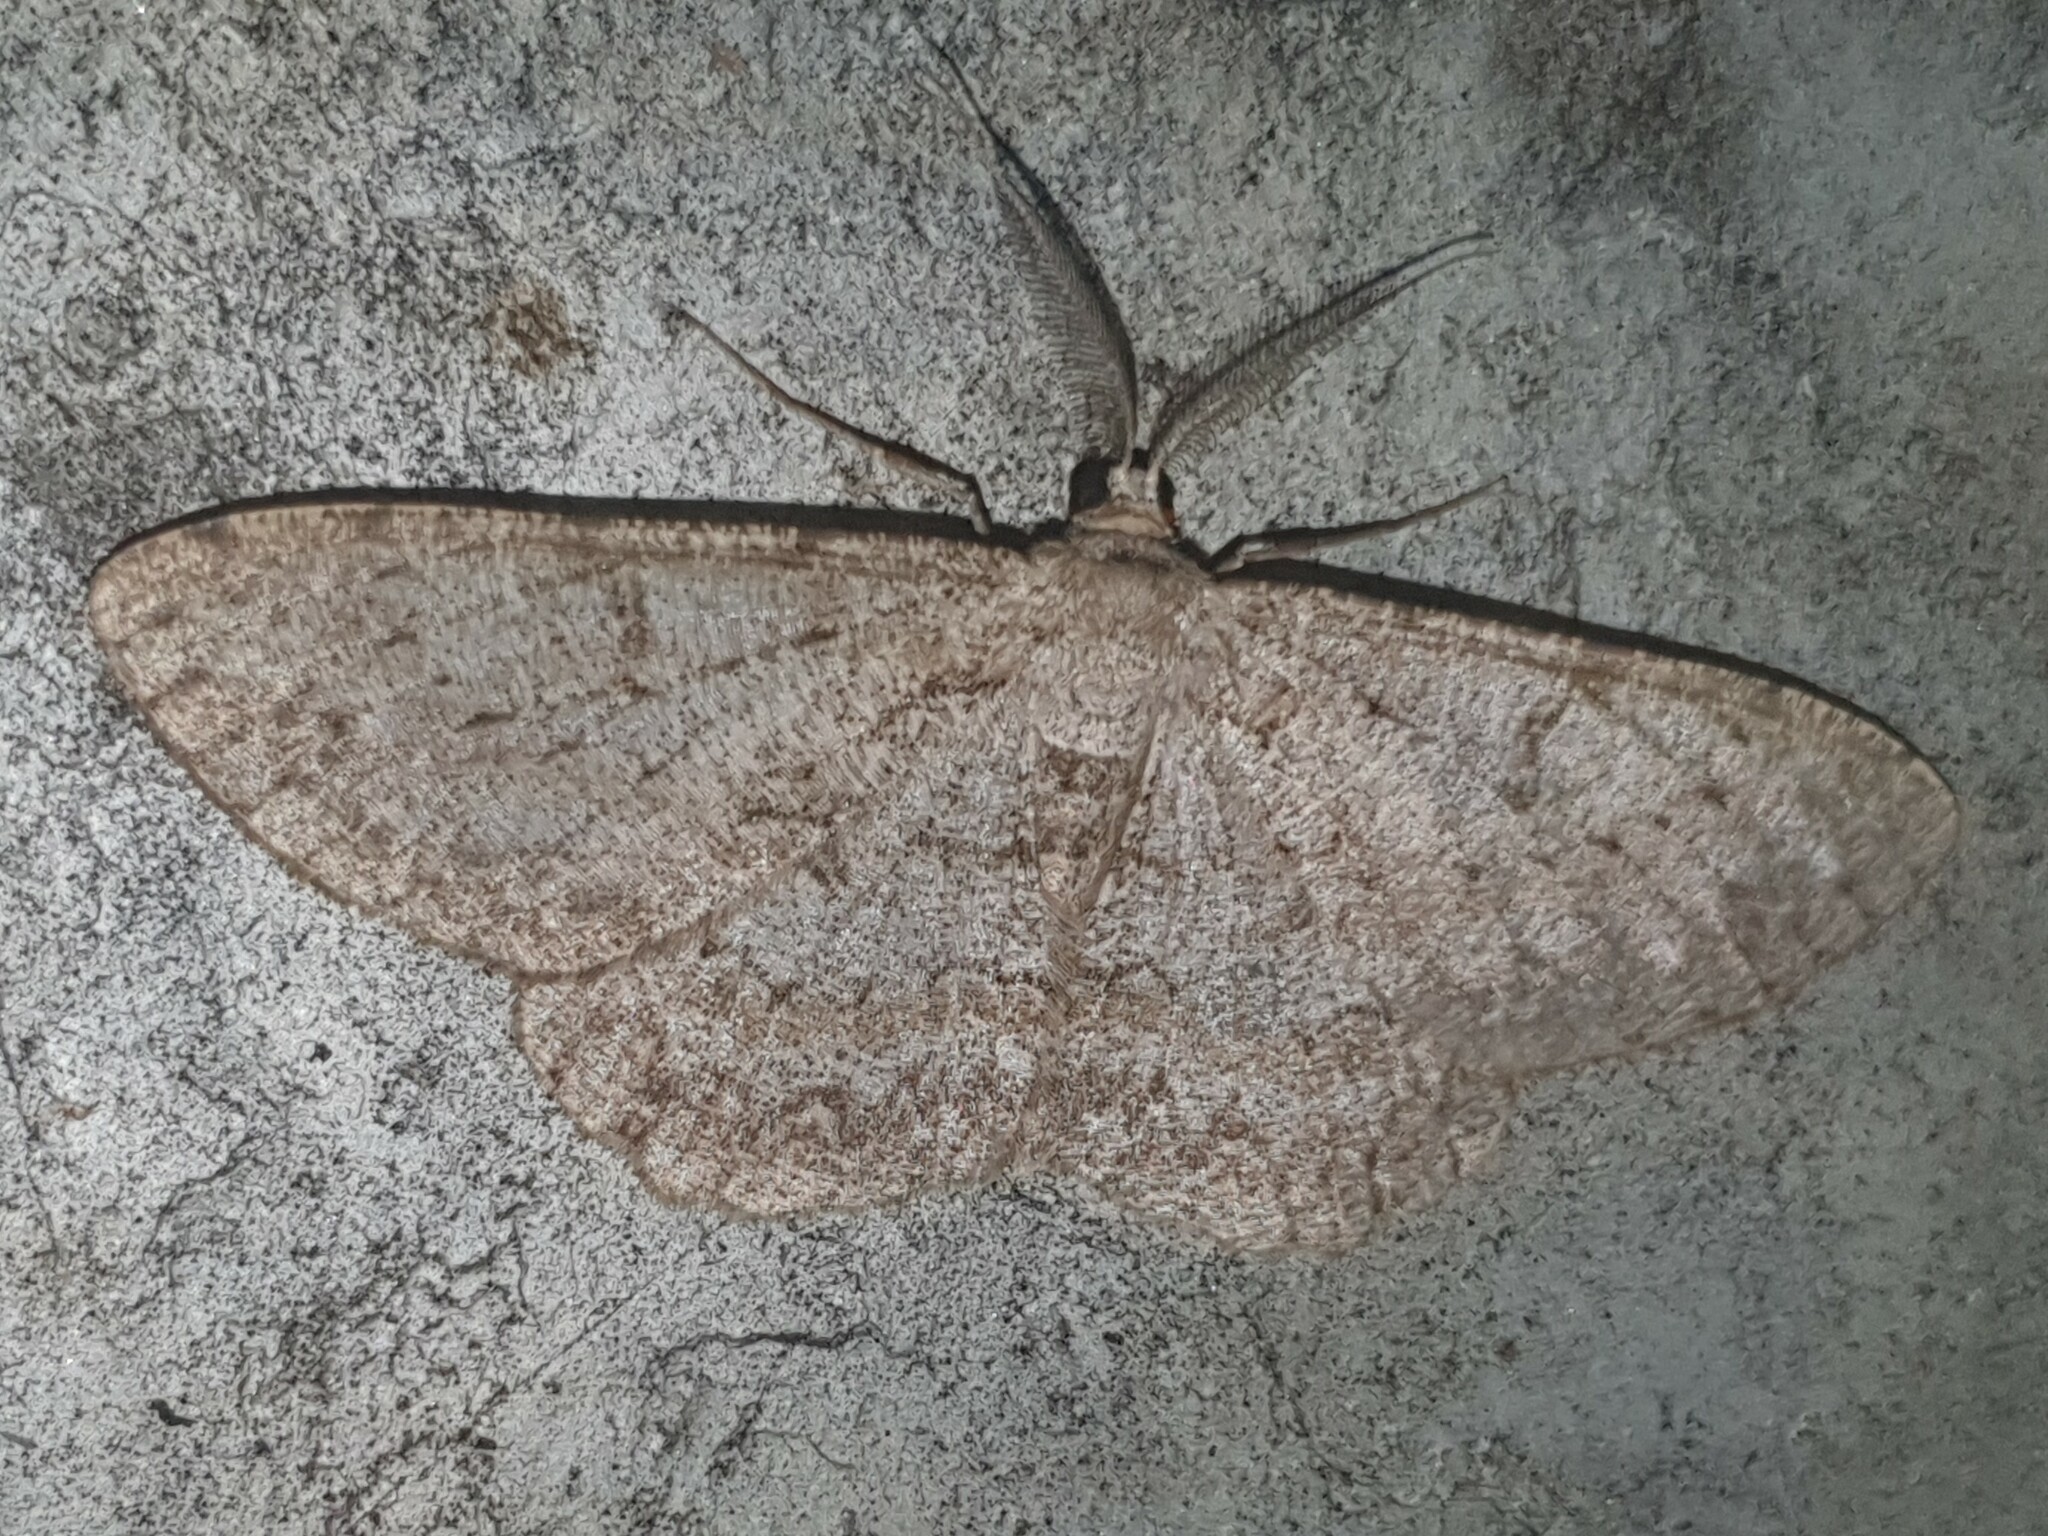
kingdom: Animalia
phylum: Arthropoda
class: Insecta
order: Lepidoptera
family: Geometridae
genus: Hypomecis
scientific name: Hypomecis punctinalis
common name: Pale oak beauty
